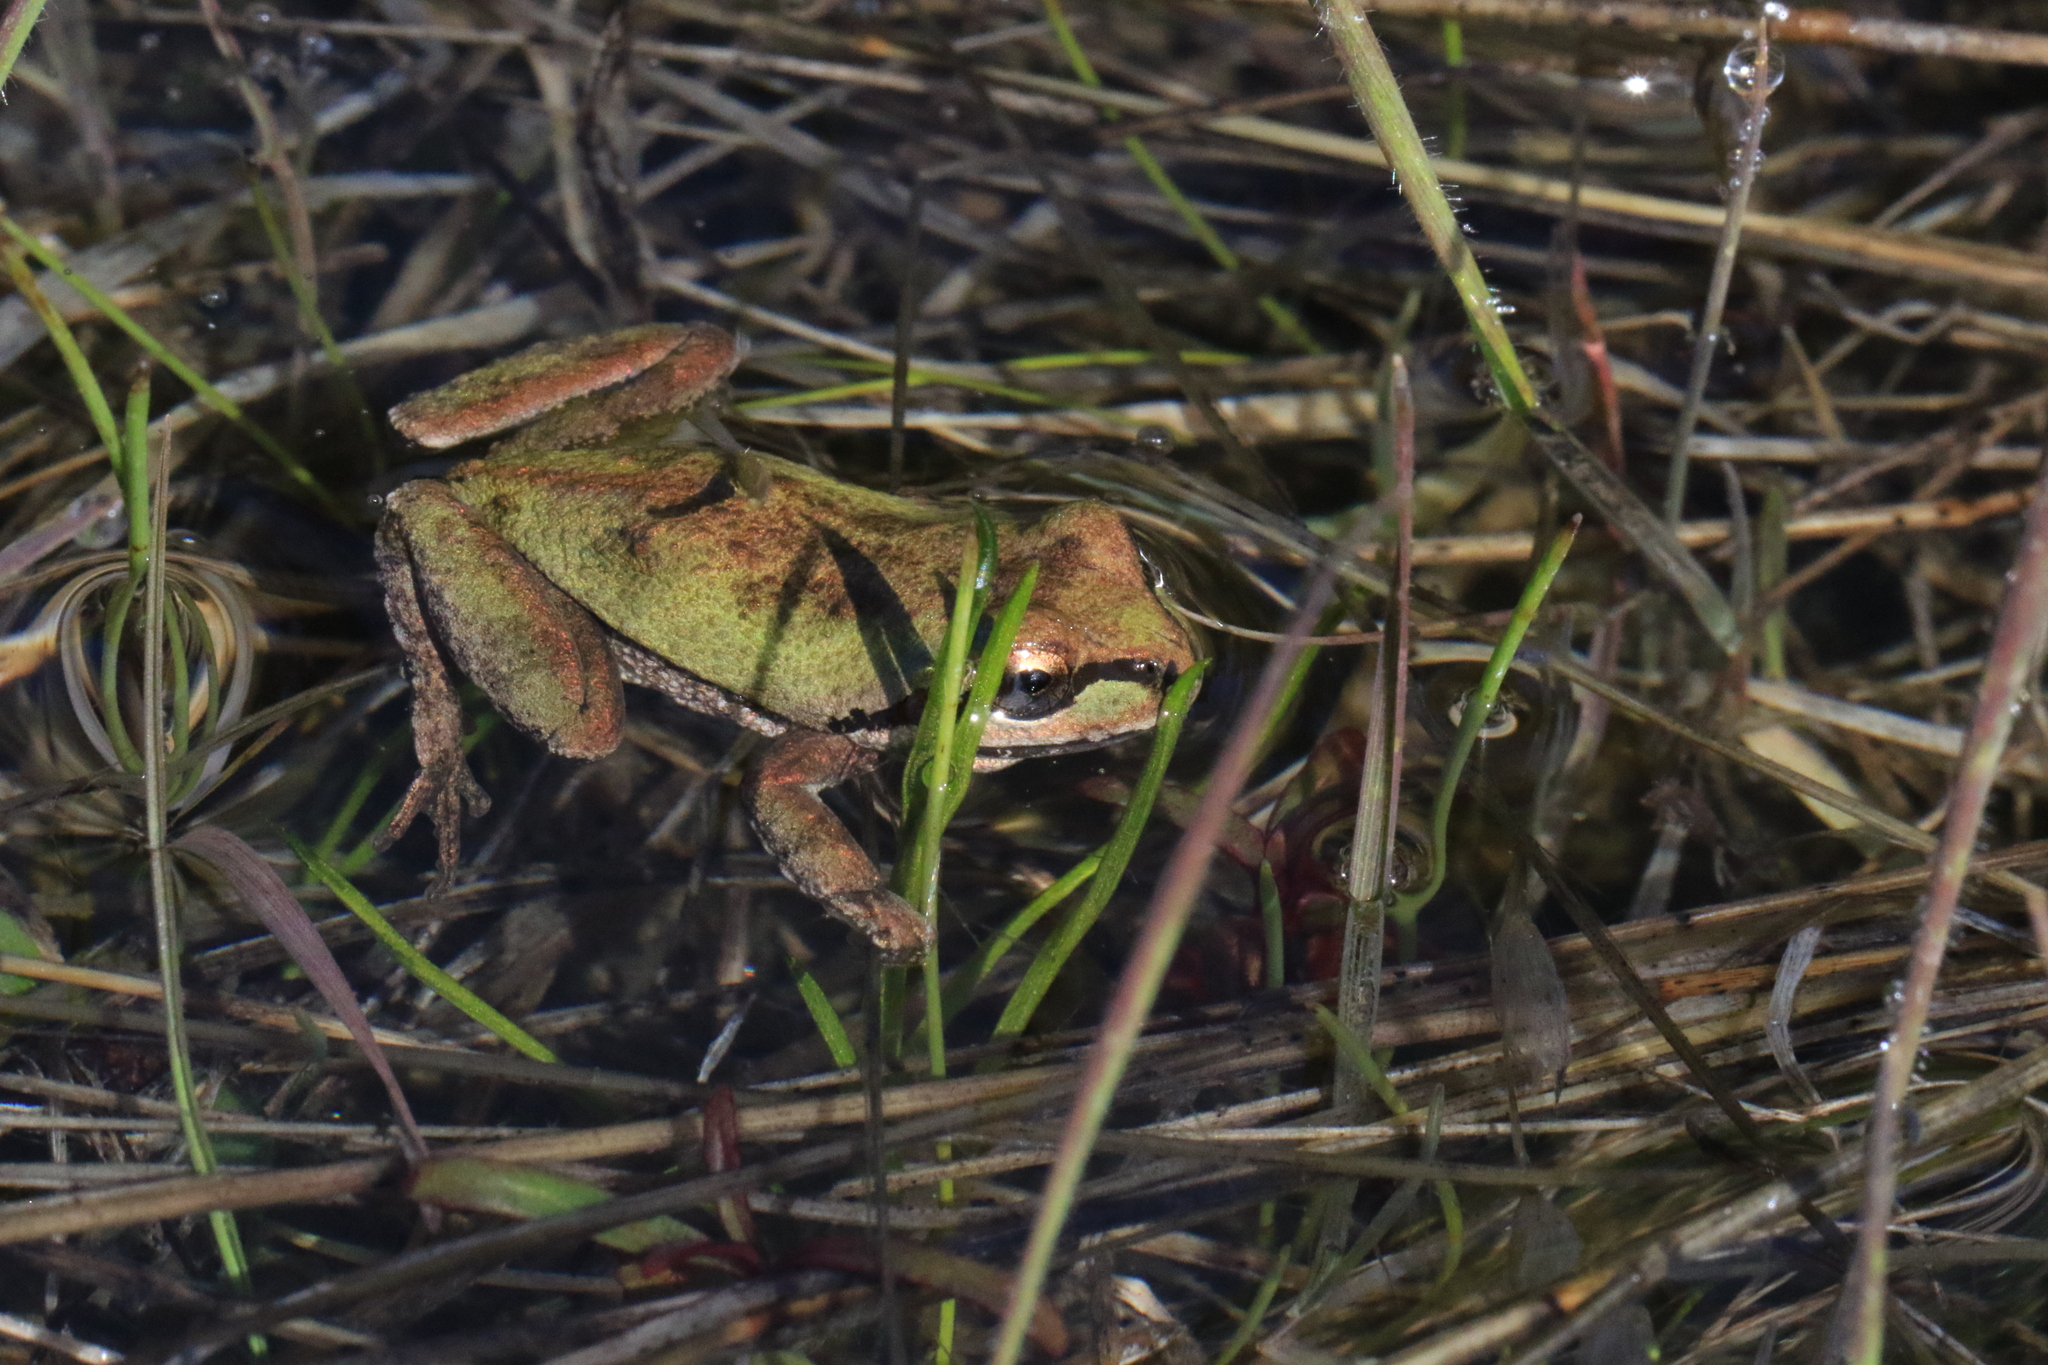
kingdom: Animalia
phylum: Chordata
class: Amphibia
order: Anura
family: Hylidae
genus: Pseudacris
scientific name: Pseudacris regilla
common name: Pacific chorus frog
